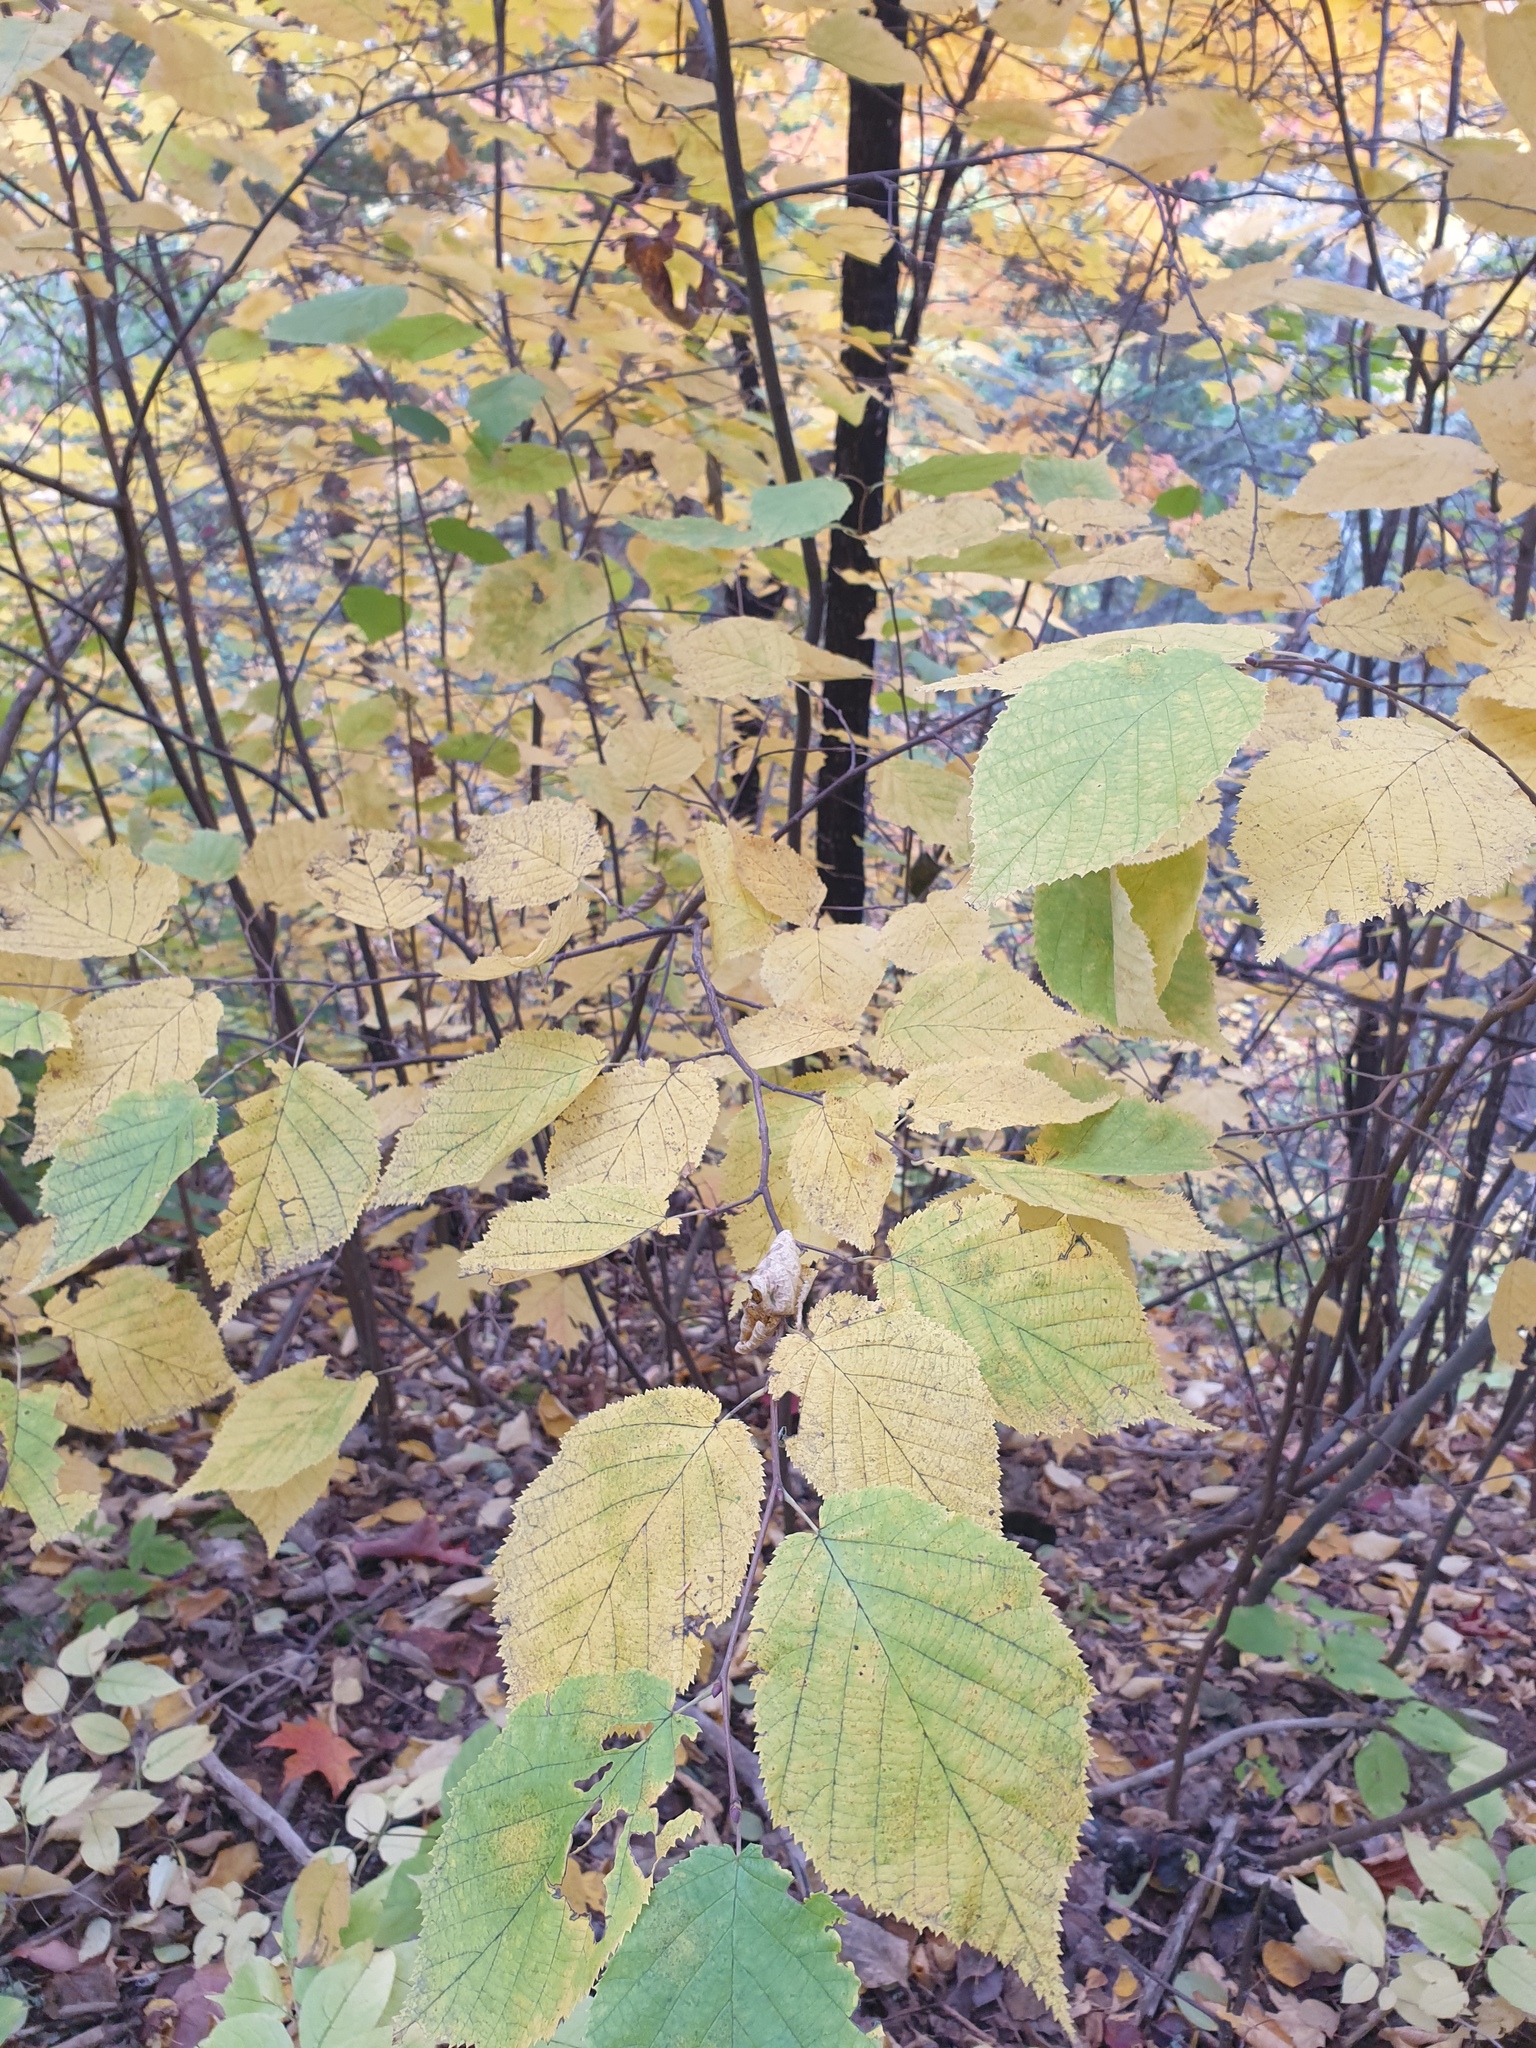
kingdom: Plantae
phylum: Tracheophyta
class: Magnoliopsida
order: Fagales
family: Betulaceae
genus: Corylus
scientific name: Corylus cornuta
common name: Beaked hazel
